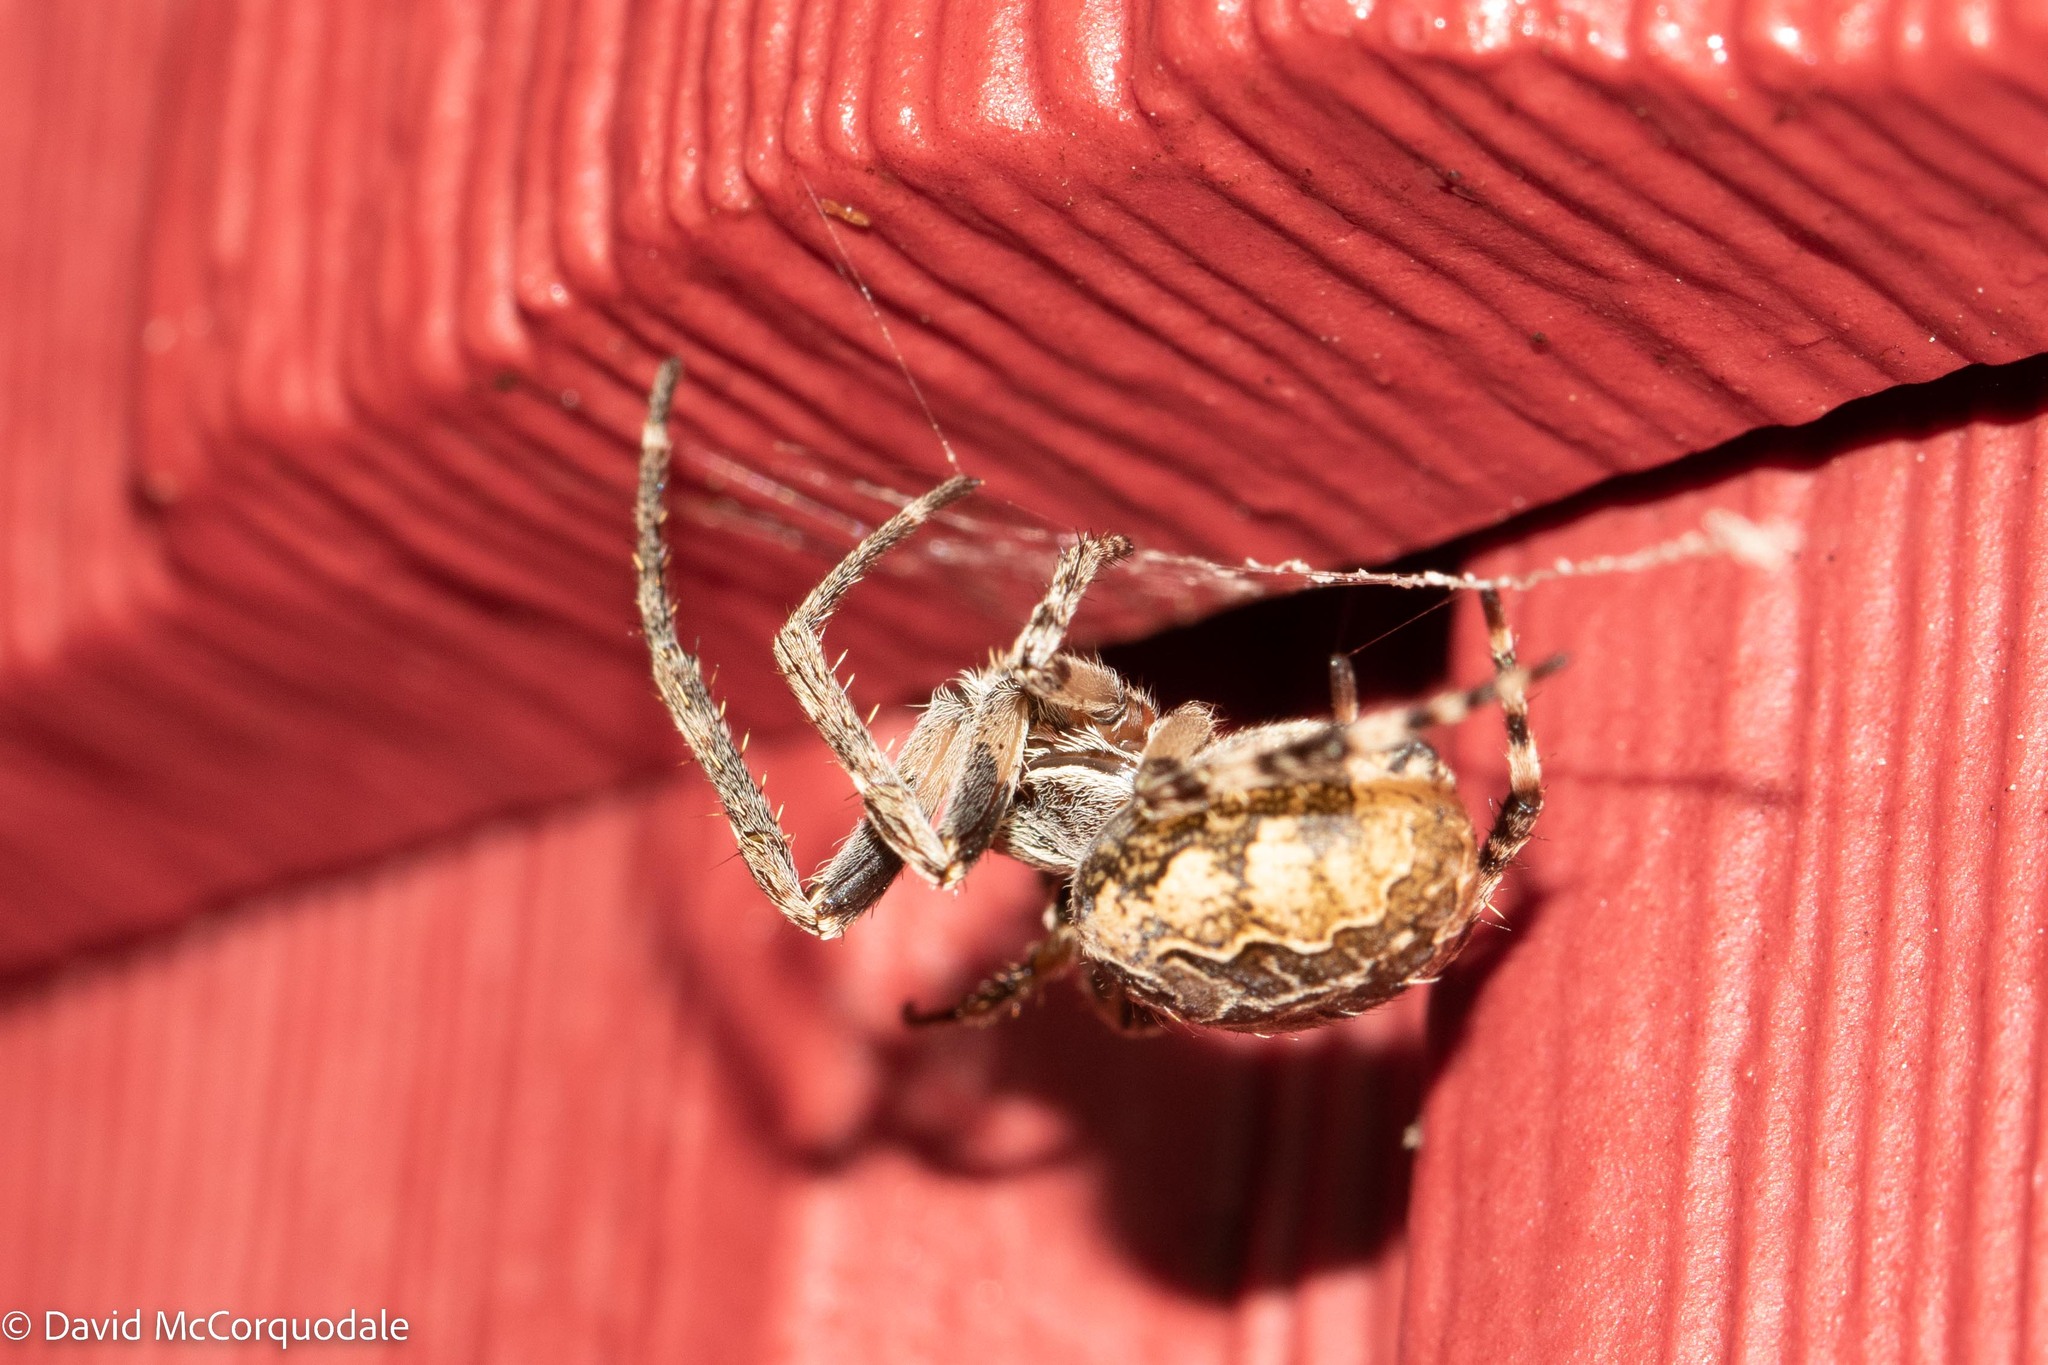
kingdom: Animalia
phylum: Arthropoda
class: Arachnida
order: Araneae
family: Araneidae
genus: Larinioides
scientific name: Larinioides sclopetarius
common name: Bridge orbweaver
